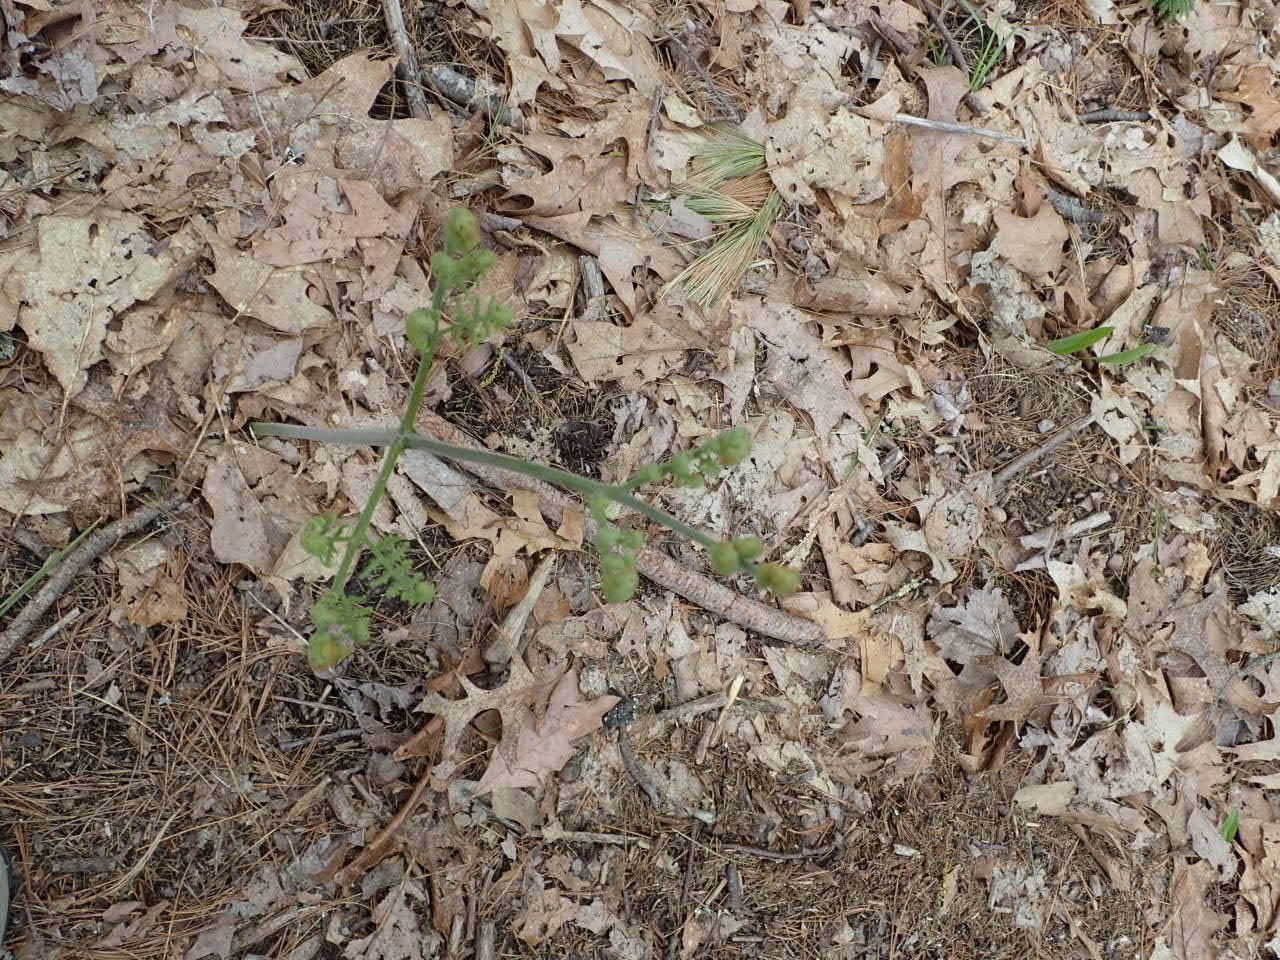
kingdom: Plantae
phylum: Tracheophyta
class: Polypodiopsida
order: Polypodiales
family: Dennstaedtiaceae
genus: Pteridium
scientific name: Pteridium aquilinum
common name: Bracken
